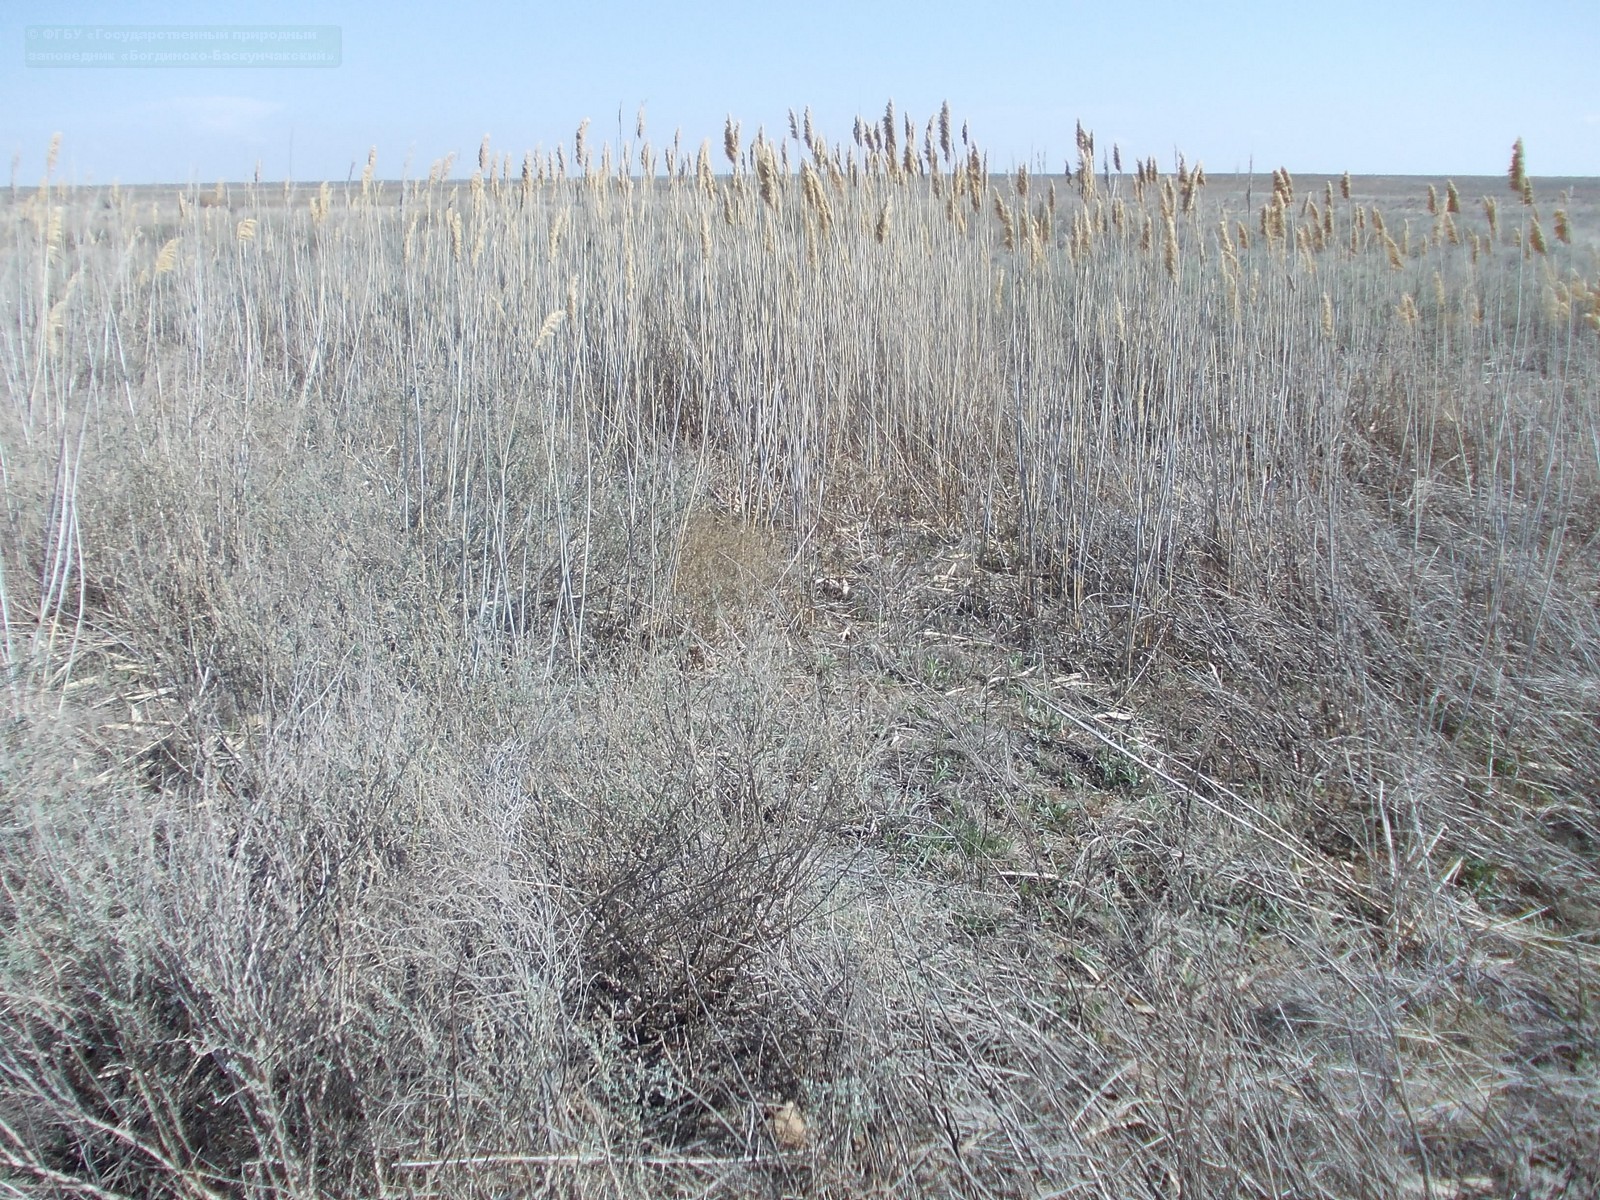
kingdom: Plantae
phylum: Tracheophyta
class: Liliopsida
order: Poales
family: Poaceae
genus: Phragmites
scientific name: Phragmites australis
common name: Common reed
